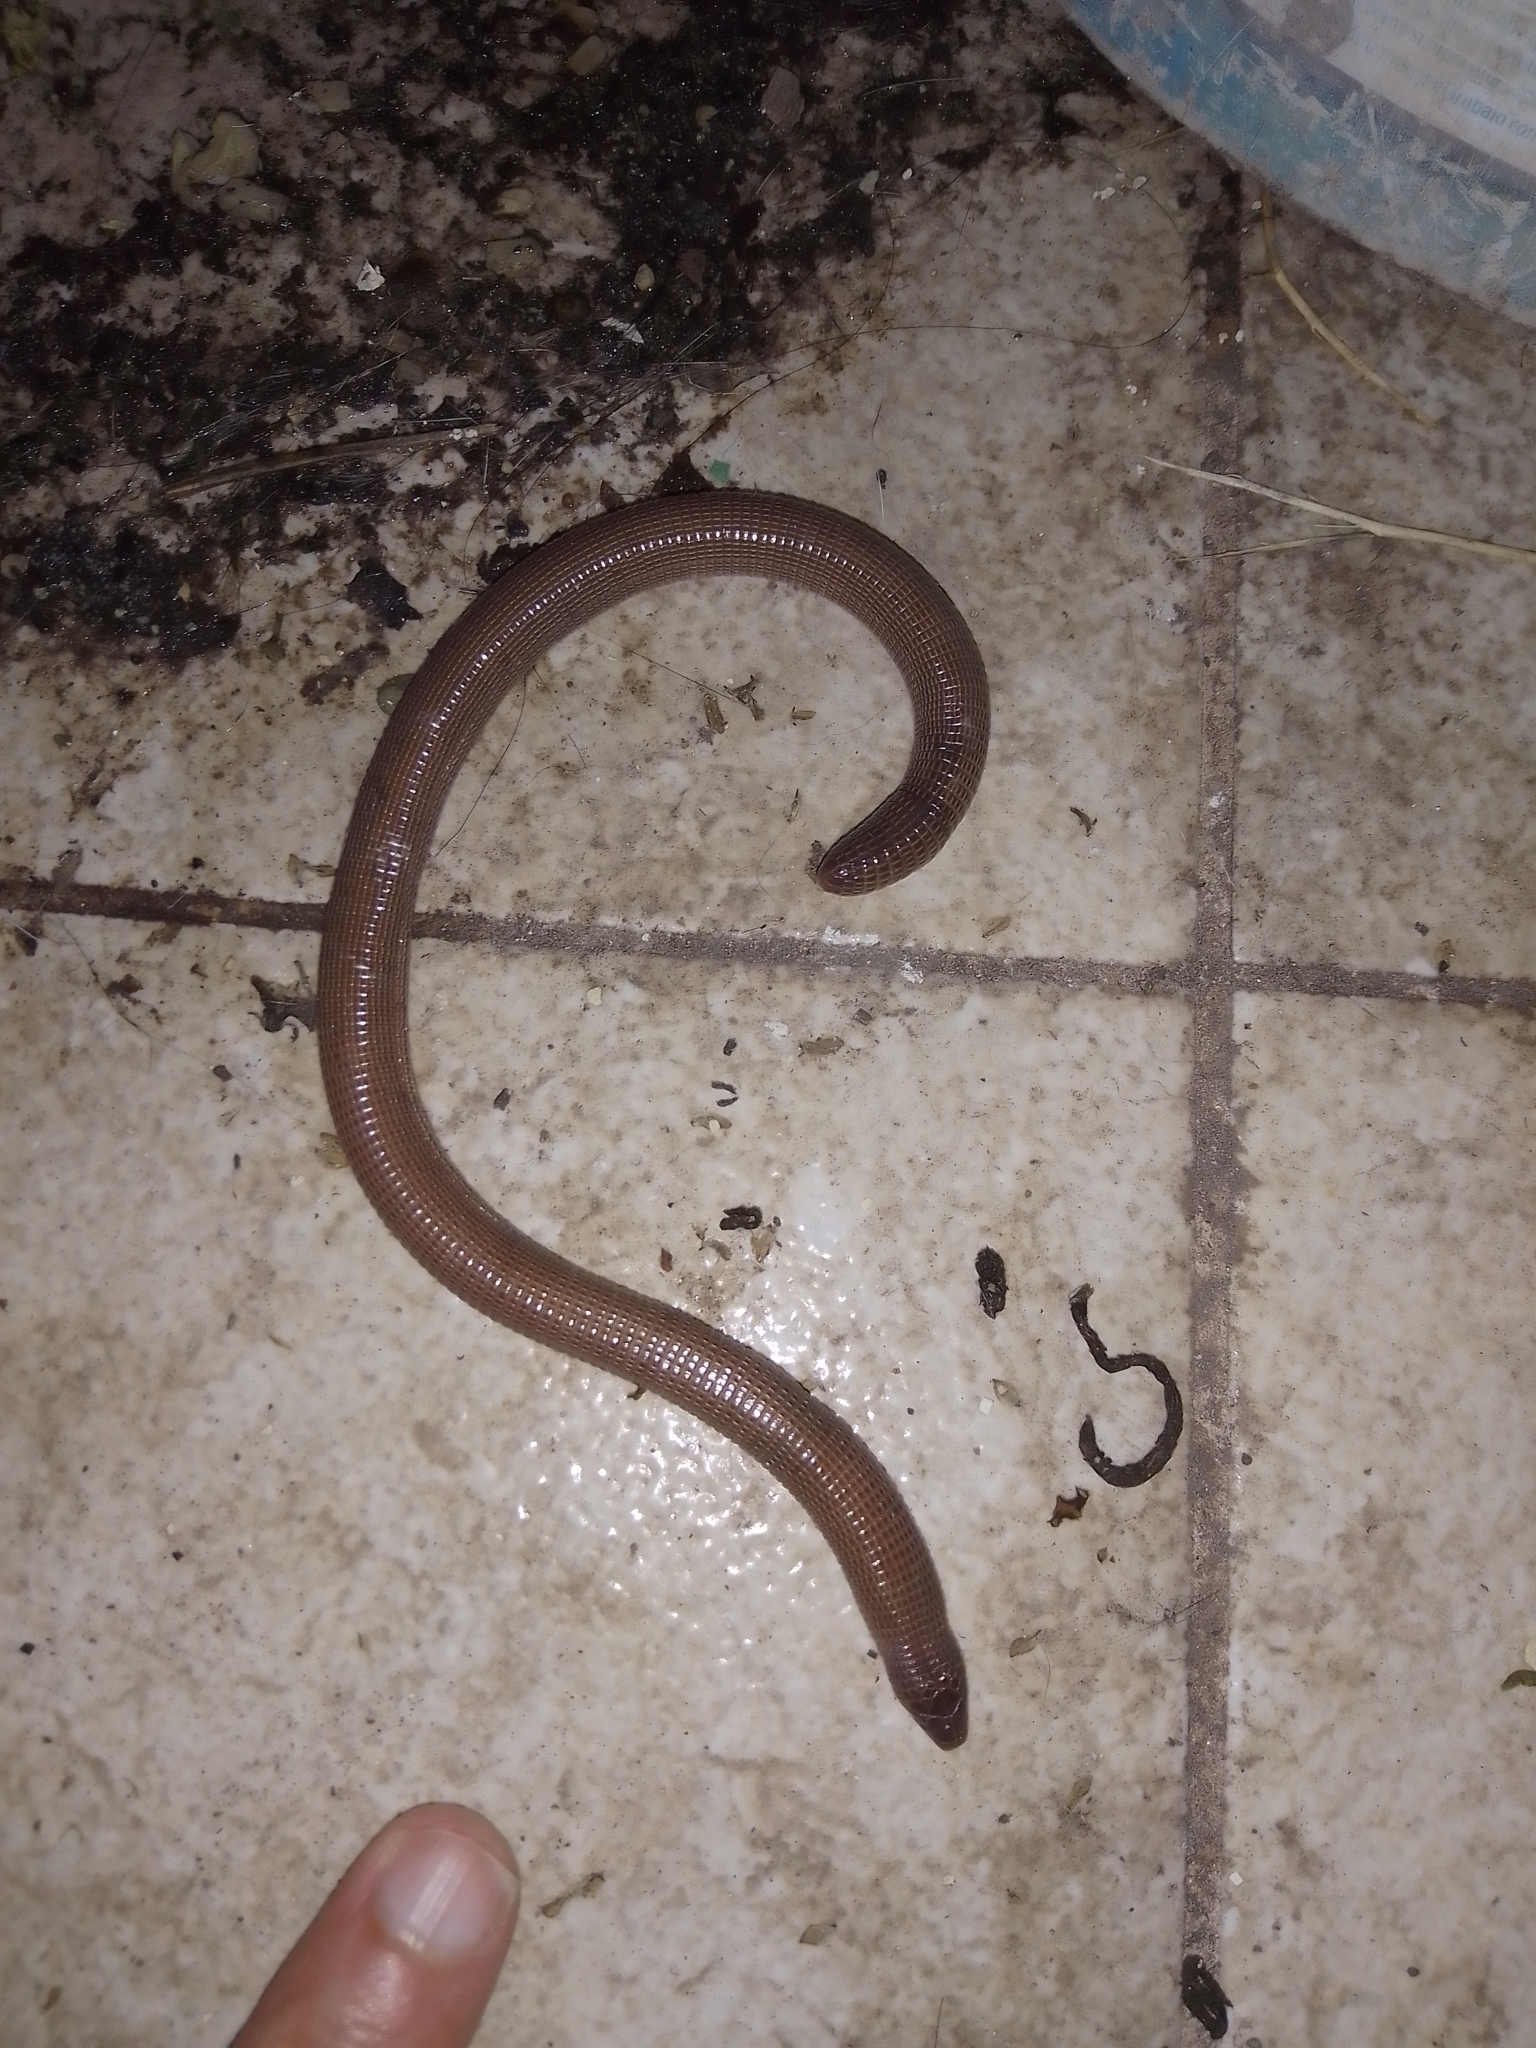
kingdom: Animalia
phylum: Chordata
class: Squamata
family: Amphisbaenidae
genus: Amphisbaena
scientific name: Amphisbaena darwinii
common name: Darwin's ringed worm lizard
